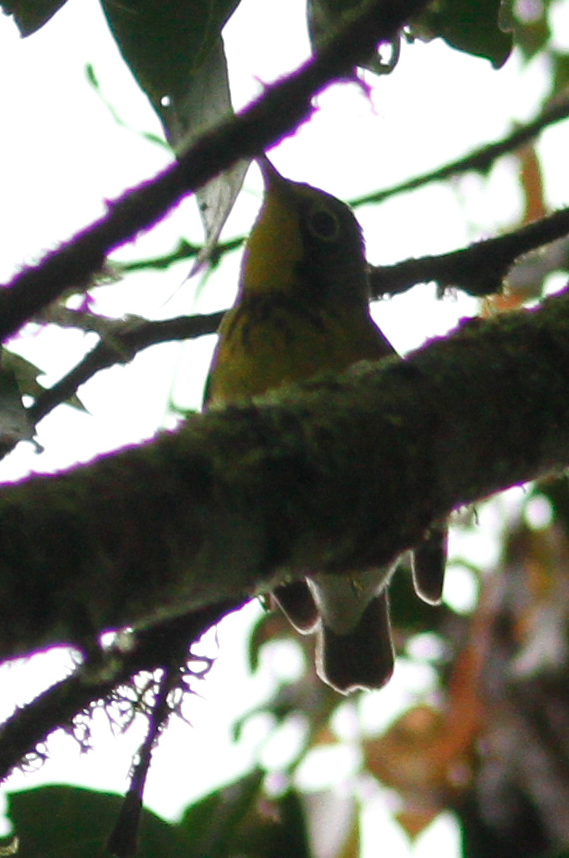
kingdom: Animalia
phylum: Chordata
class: Aves
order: Passeriformes
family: Parulidae
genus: Cardellina
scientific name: Cardellina canadensis
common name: Canada warbler
